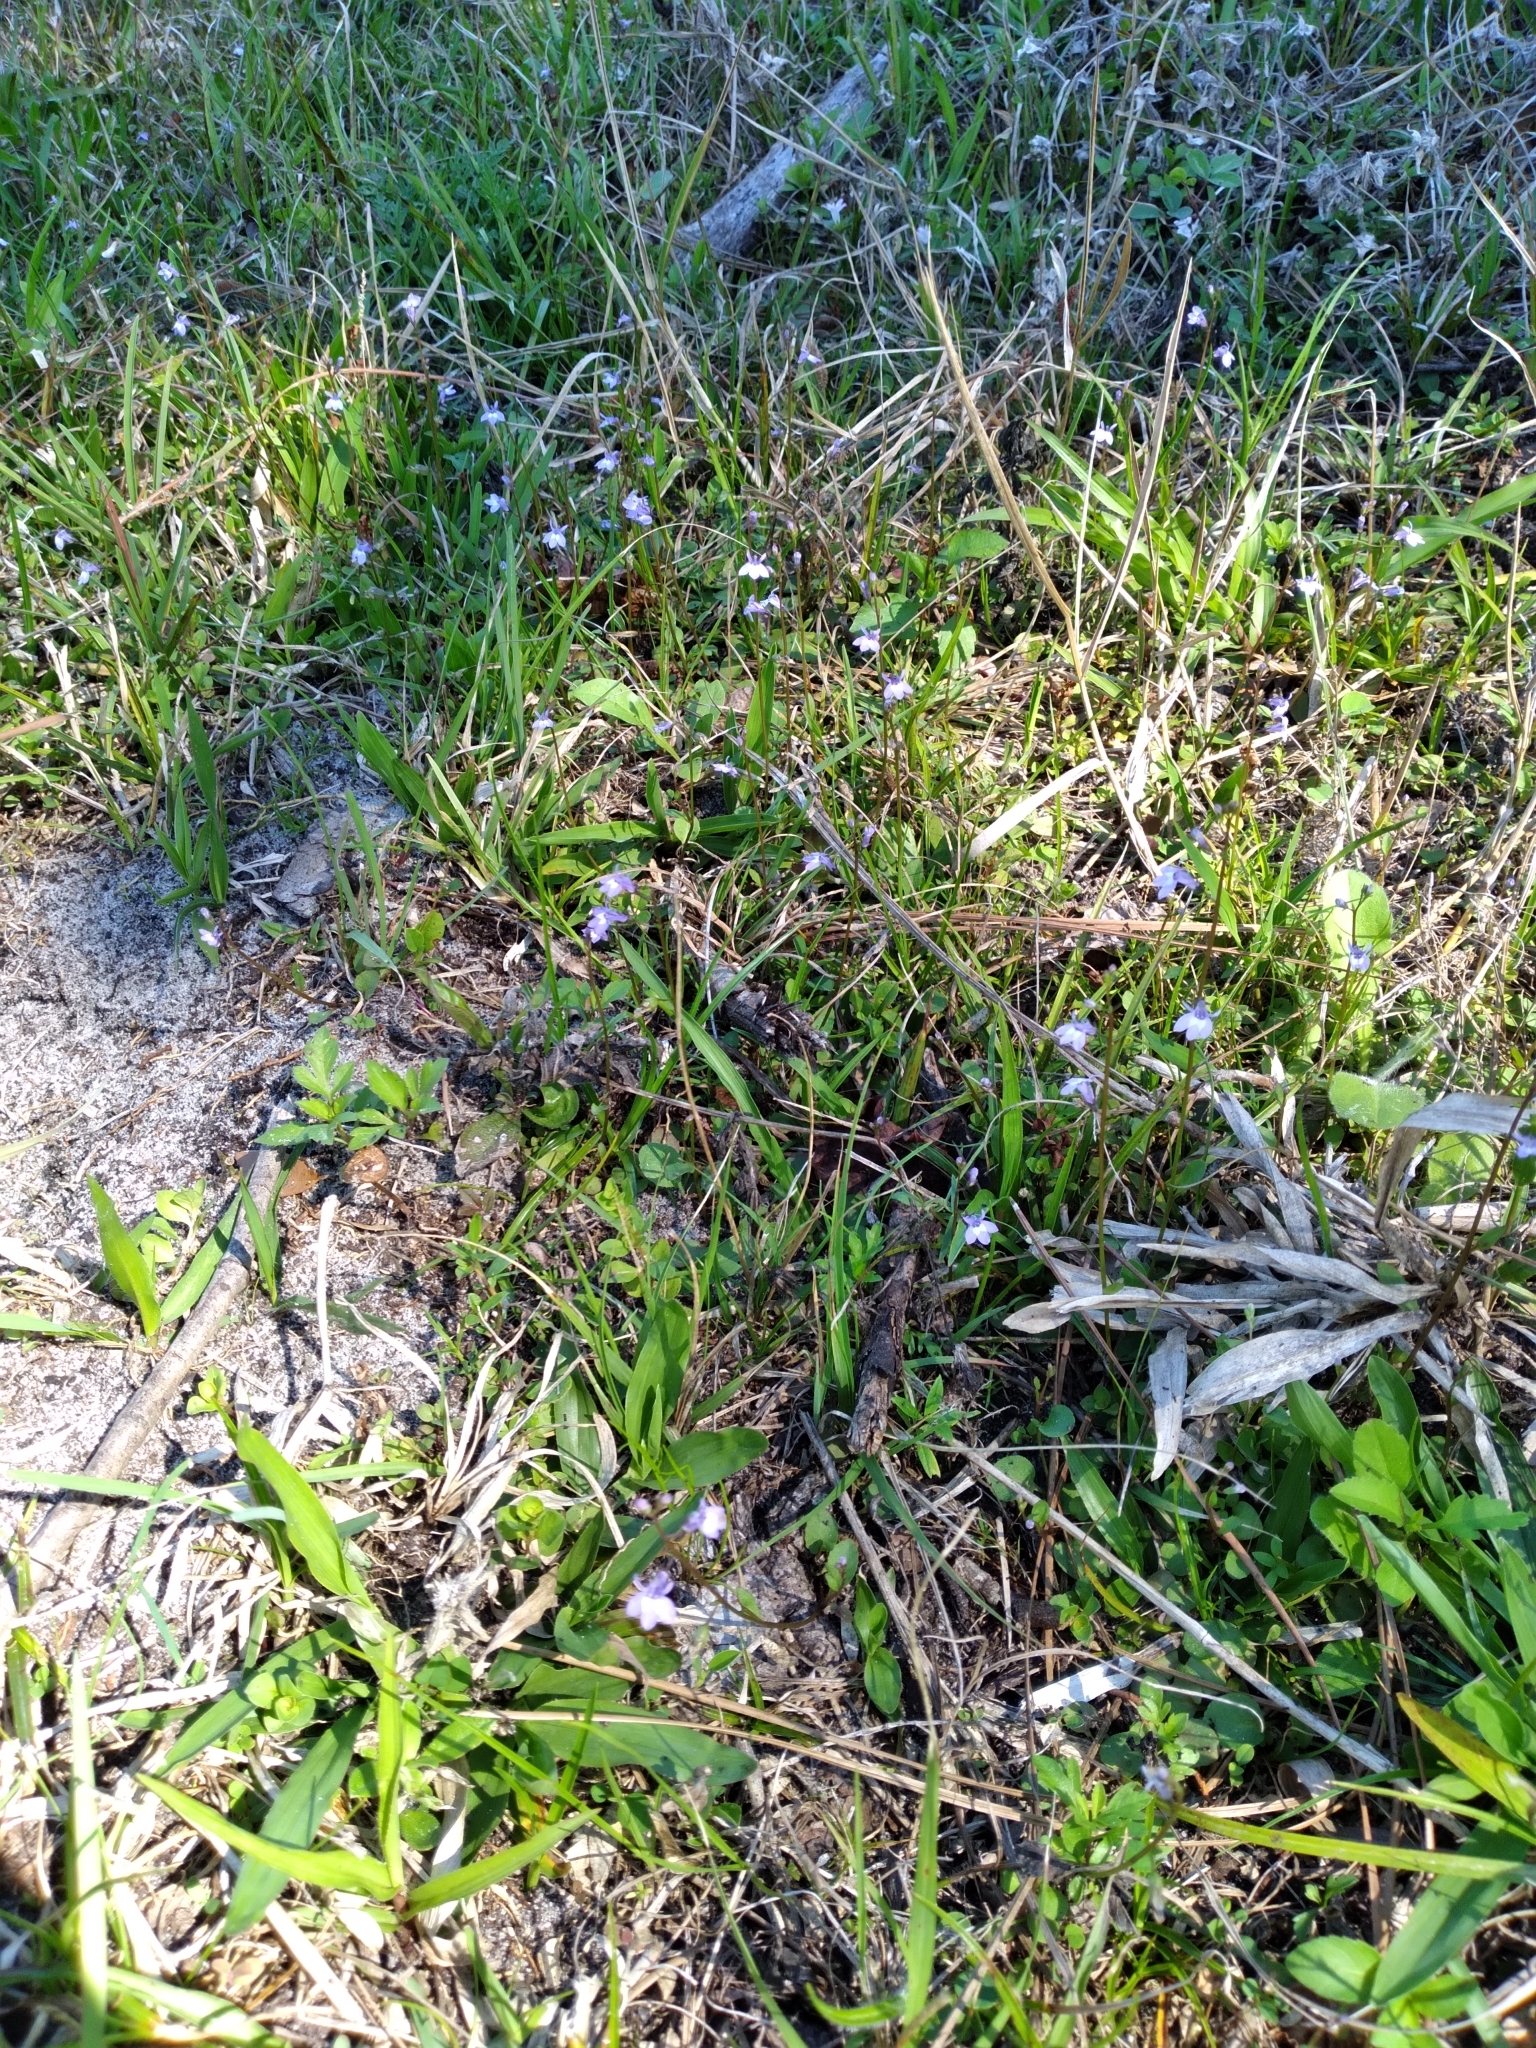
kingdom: Plantae
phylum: Tracheophyta
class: Magnoliopsida
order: Asterales
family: Campanulaceae
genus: Lobelia
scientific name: Lobelia feayana
